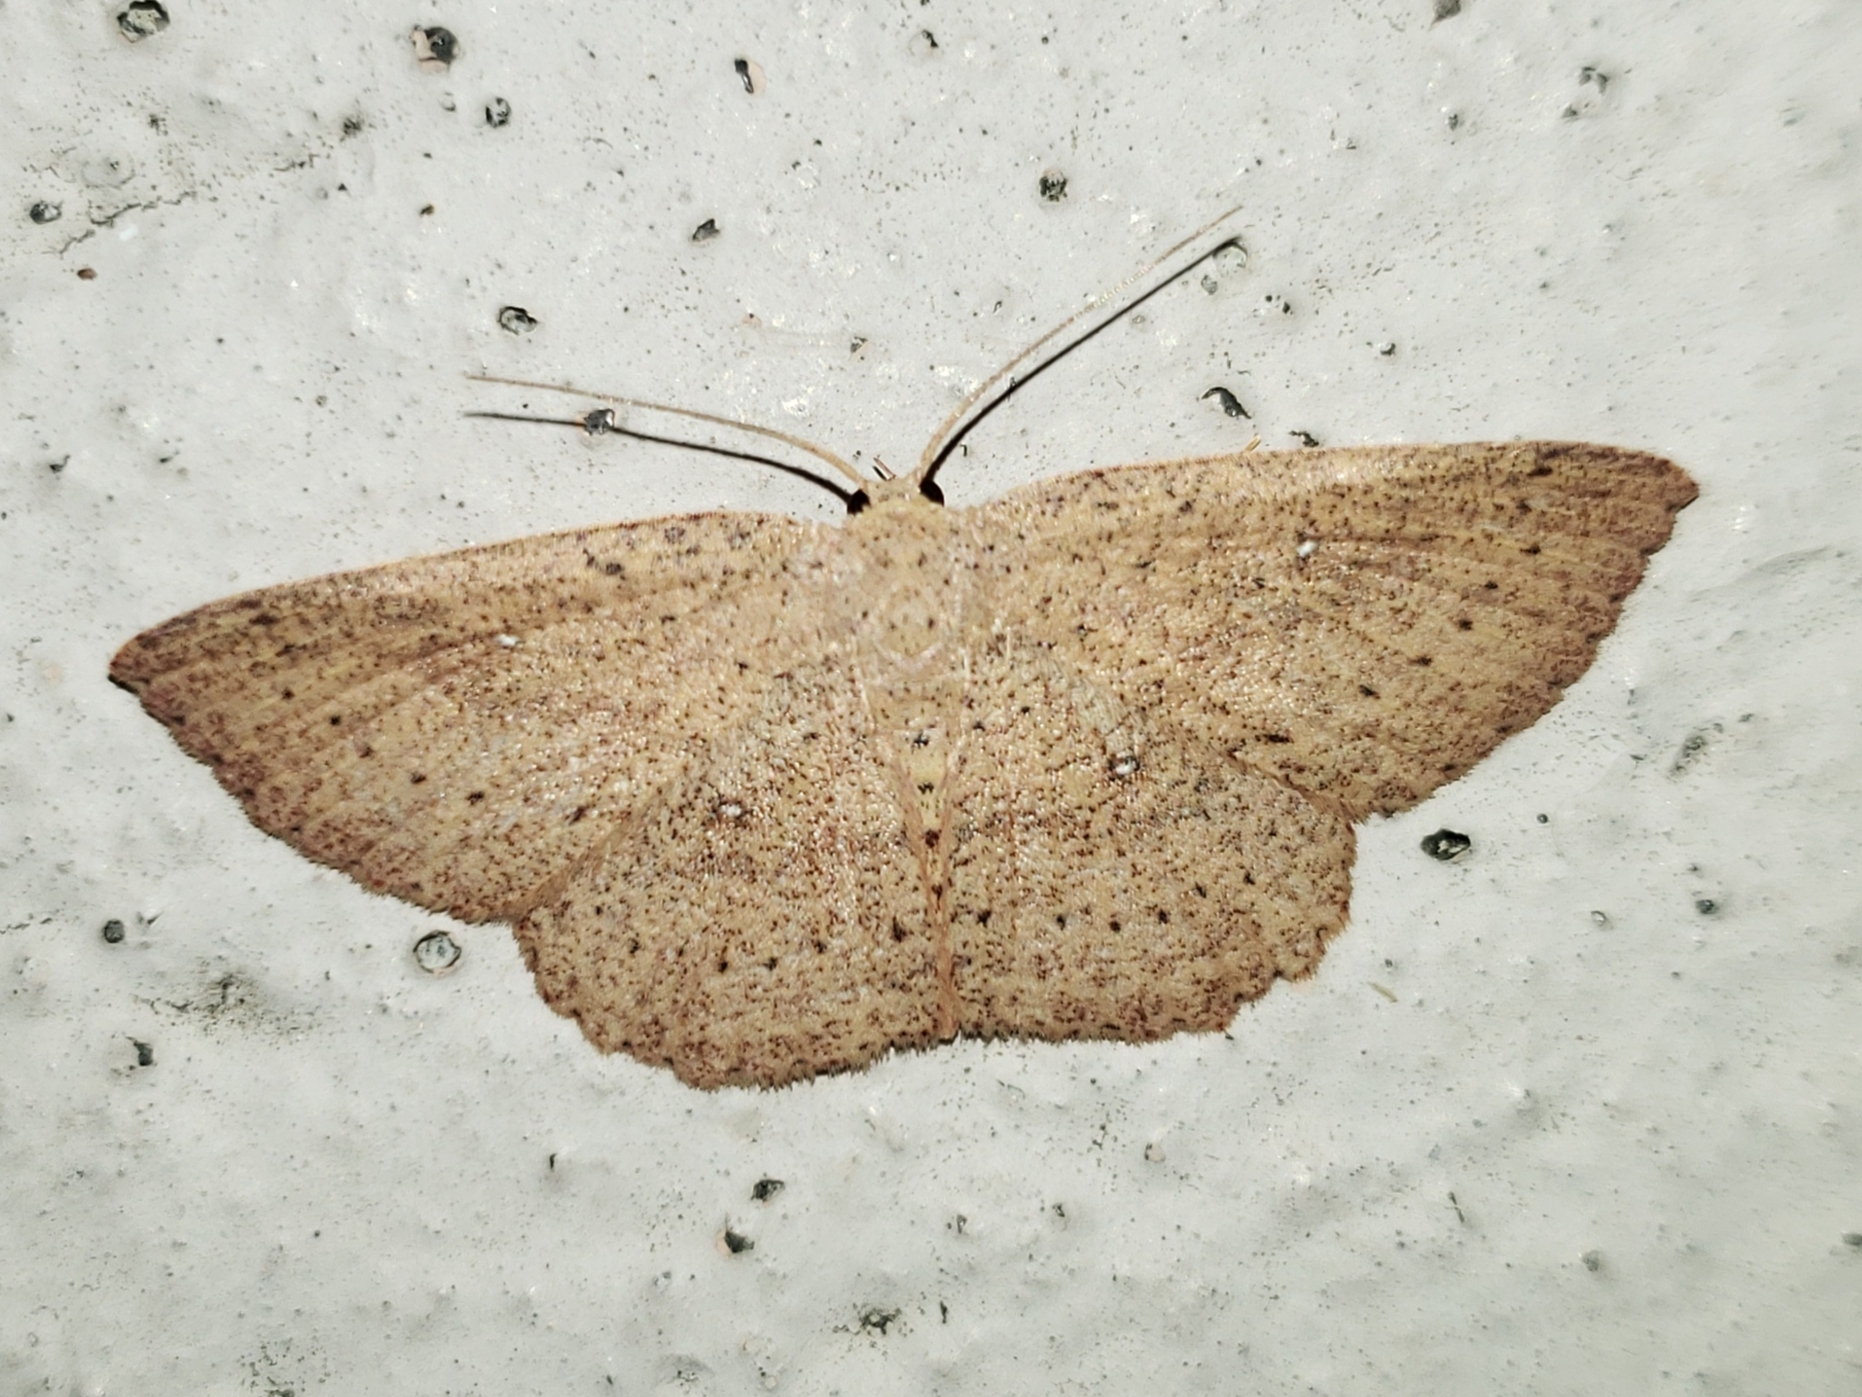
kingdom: Animalia
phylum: Arthropoda
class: Insecta
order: Lepidoptera
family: Geometridae
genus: Cyclophora
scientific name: Cyclophora myrtaria
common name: Waxmyrtle wave moth
